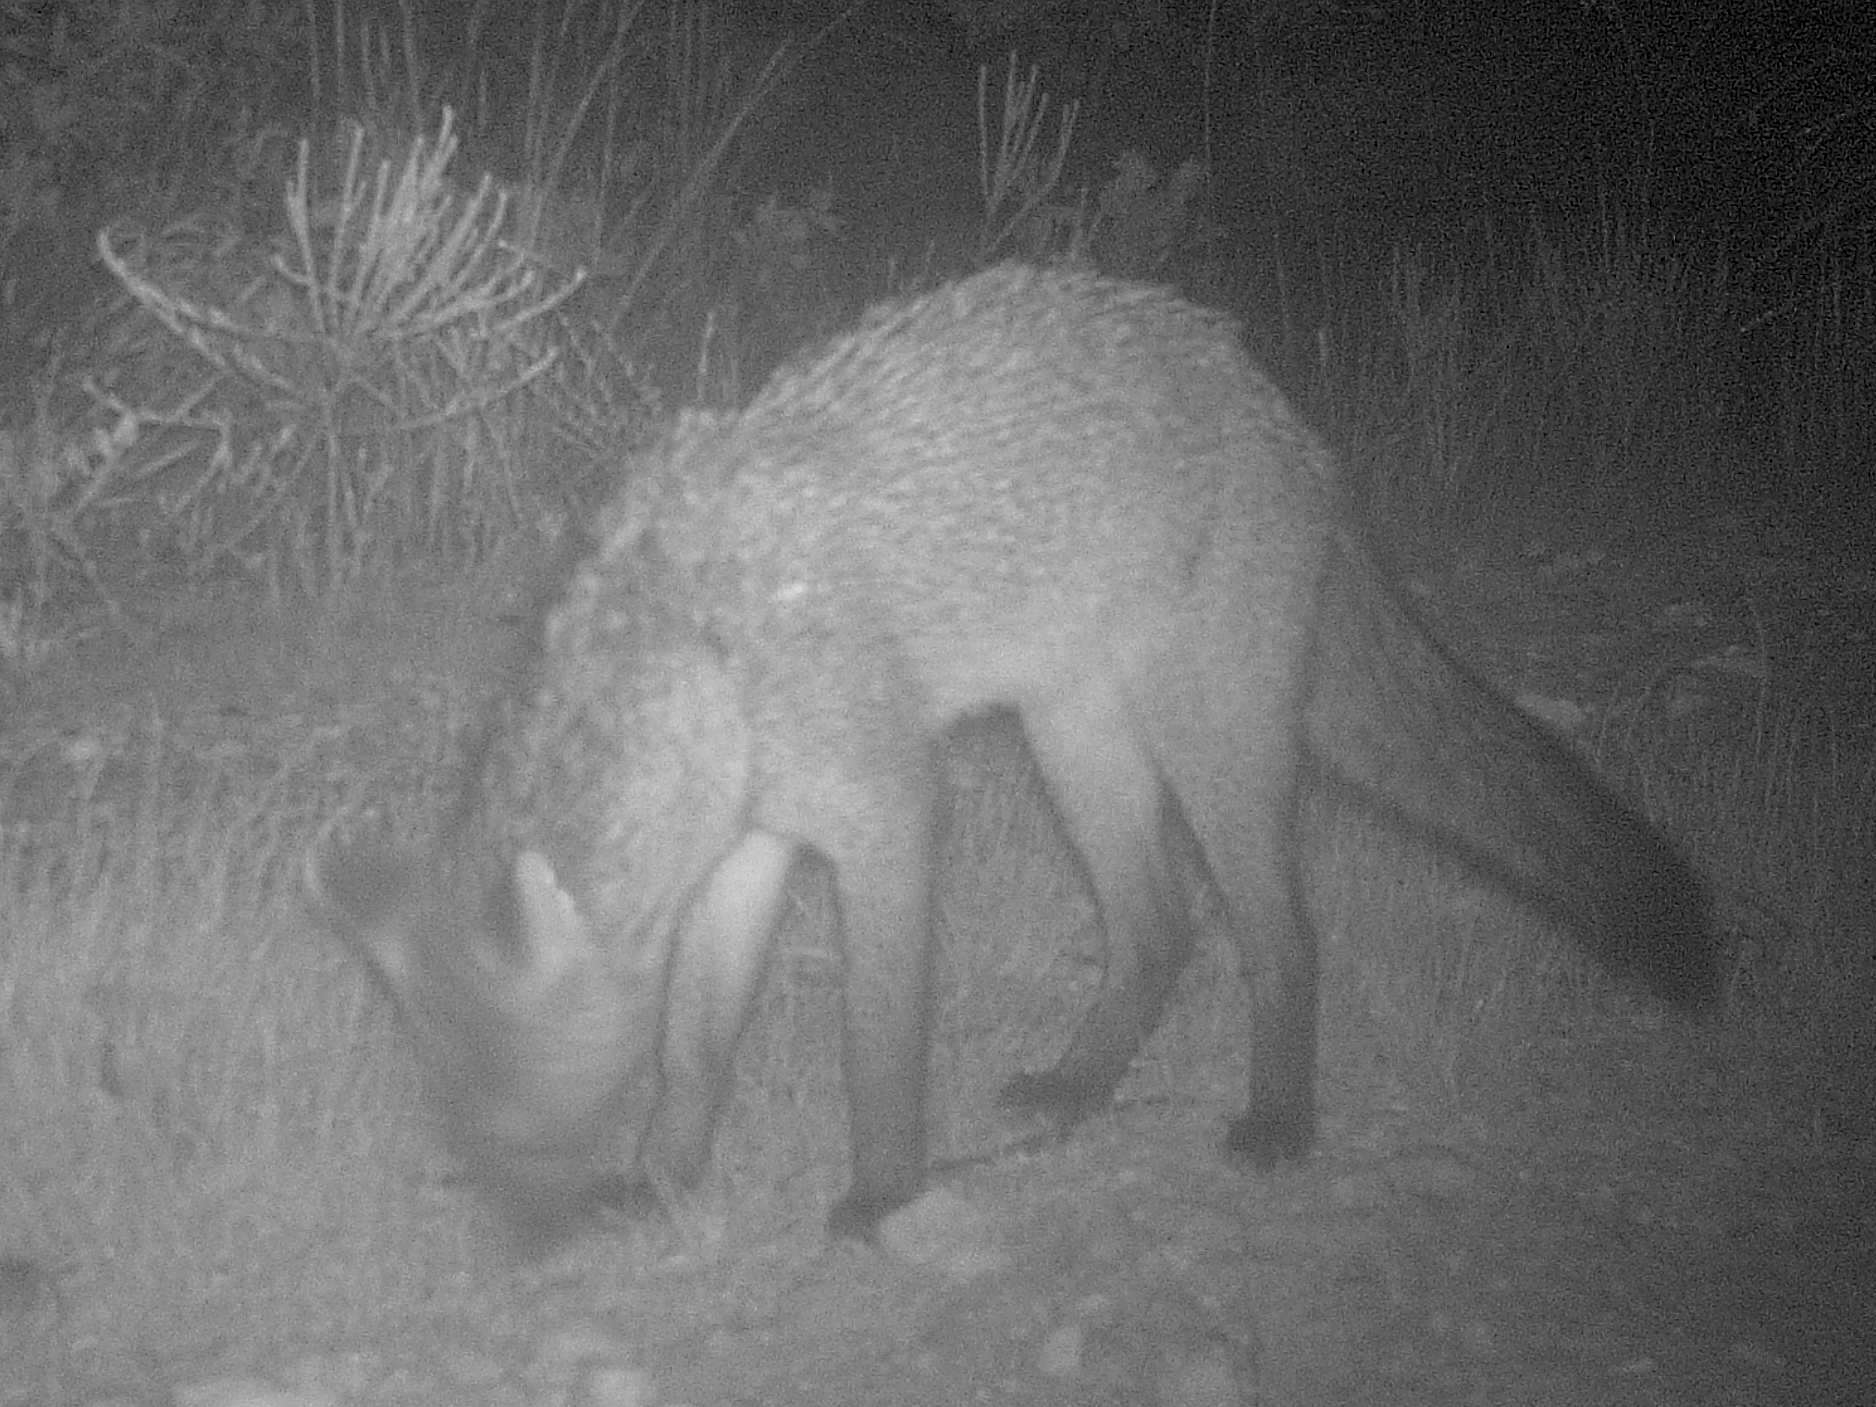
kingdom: Animalia
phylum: Chordata
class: Mammalia
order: Carnivora
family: Canidae
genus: Cerdocyon
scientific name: Cerdocyon thous
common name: Crab-eating fox
